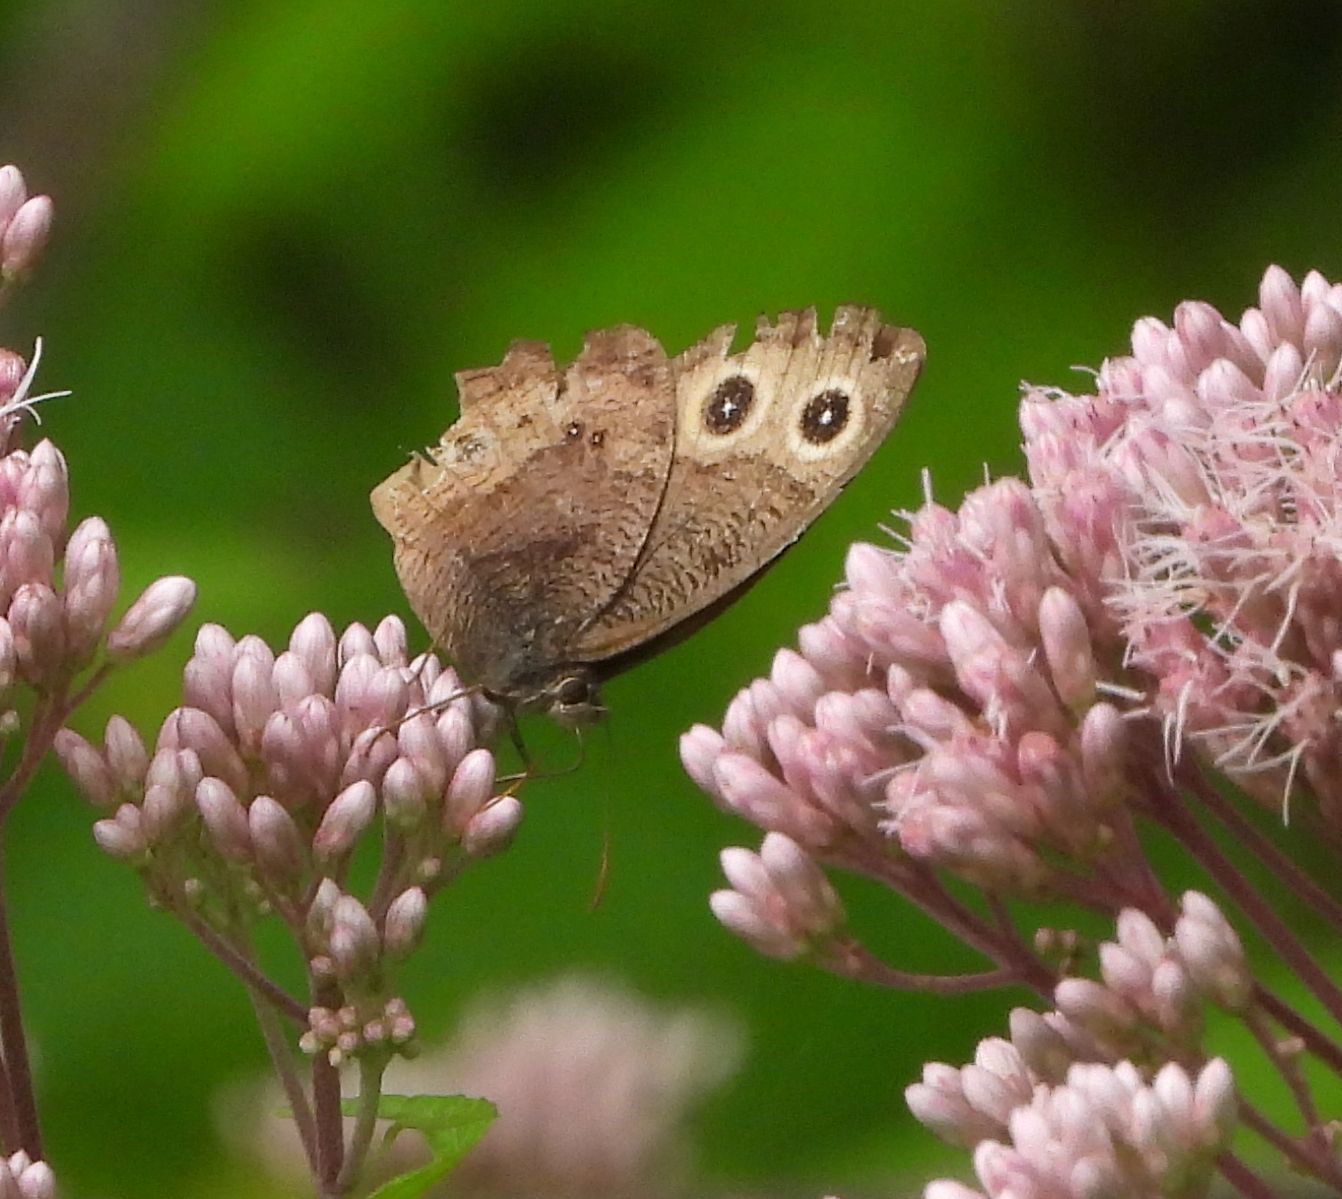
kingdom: Animalia
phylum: Arthropoda
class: Insecta
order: Lepidoptera
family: Nymphalidae
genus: Cercyonis
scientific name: Cercyonis pegala
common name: Common wood-nymph
